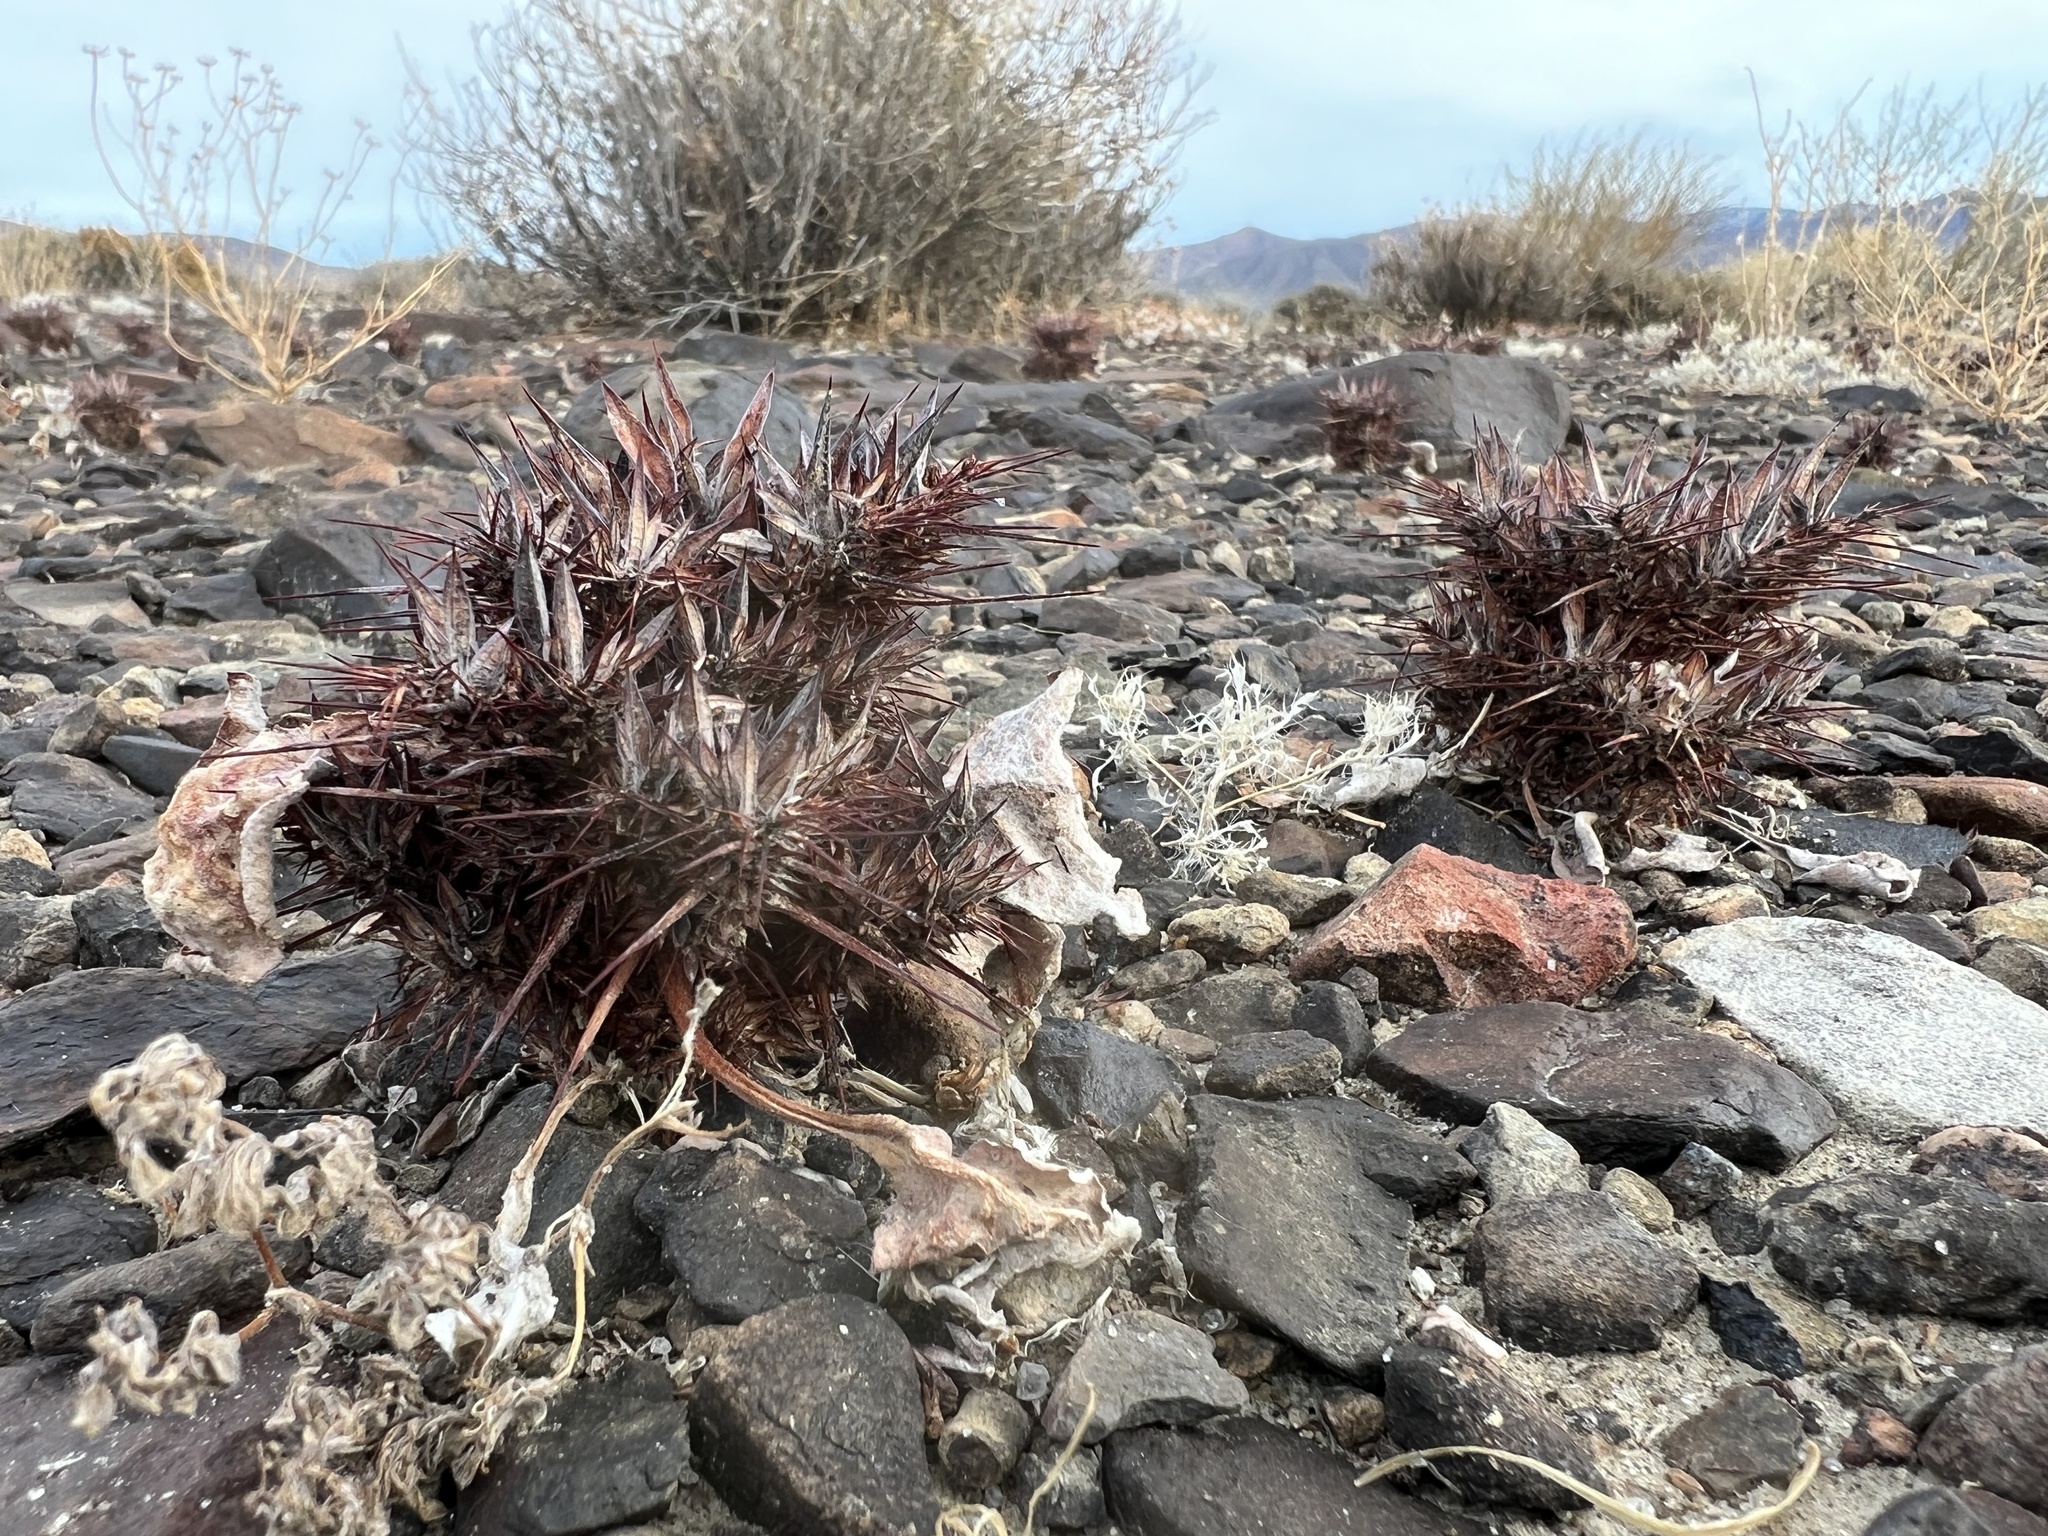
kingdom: Plantae
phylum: Tracheophyta
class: Magnoliopsida
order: Caryophyllales
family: Polygonaceae
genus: Chorizanthe
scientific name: Chorizanthe rigida
